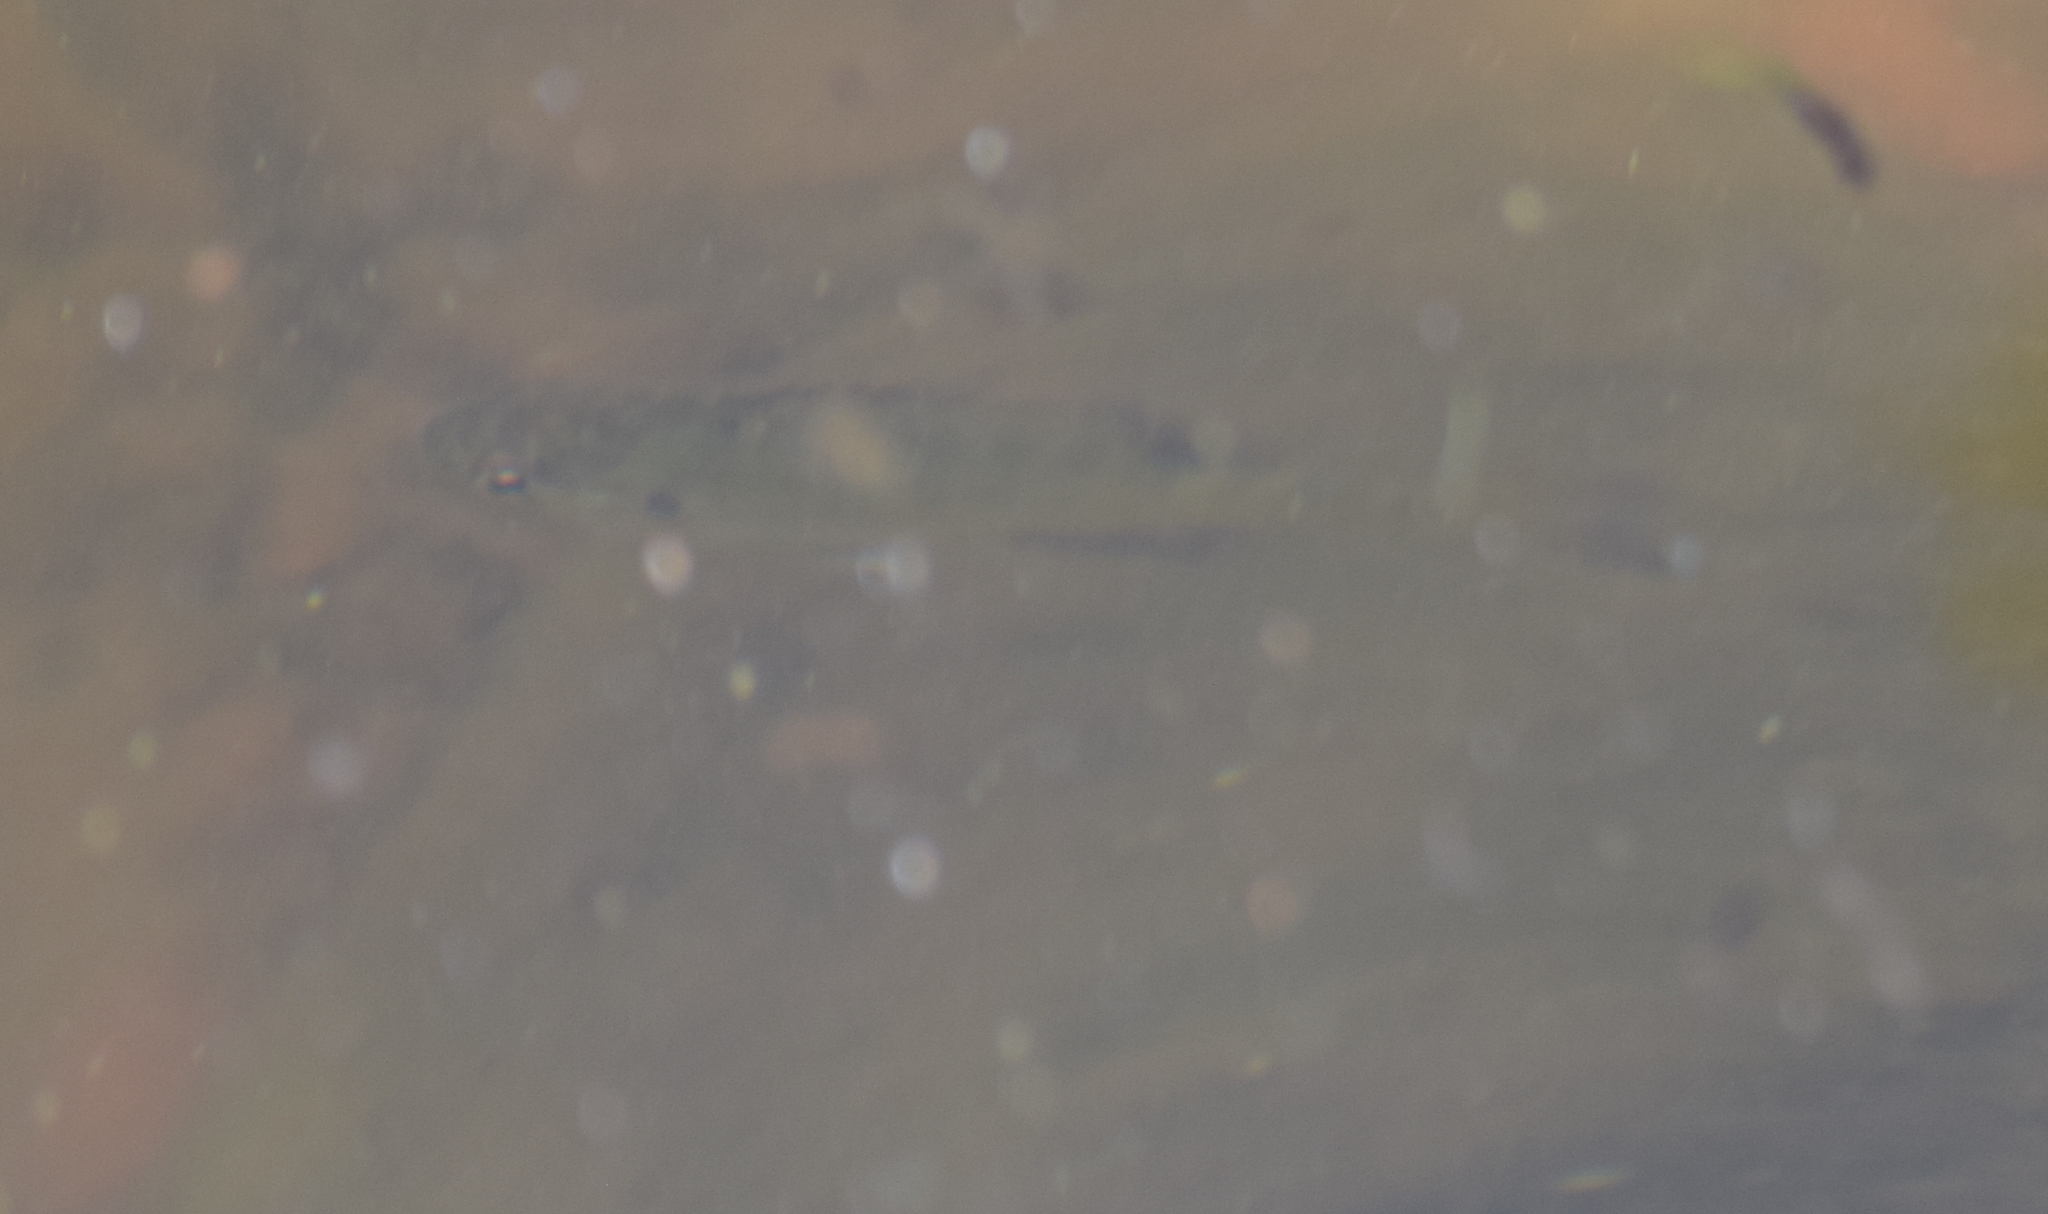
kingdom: Animalia
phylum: Chordata
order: Perciformes
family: Centrarchidae
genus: Lepomis
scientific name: Lepomis macrochirus
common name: Bluegill
